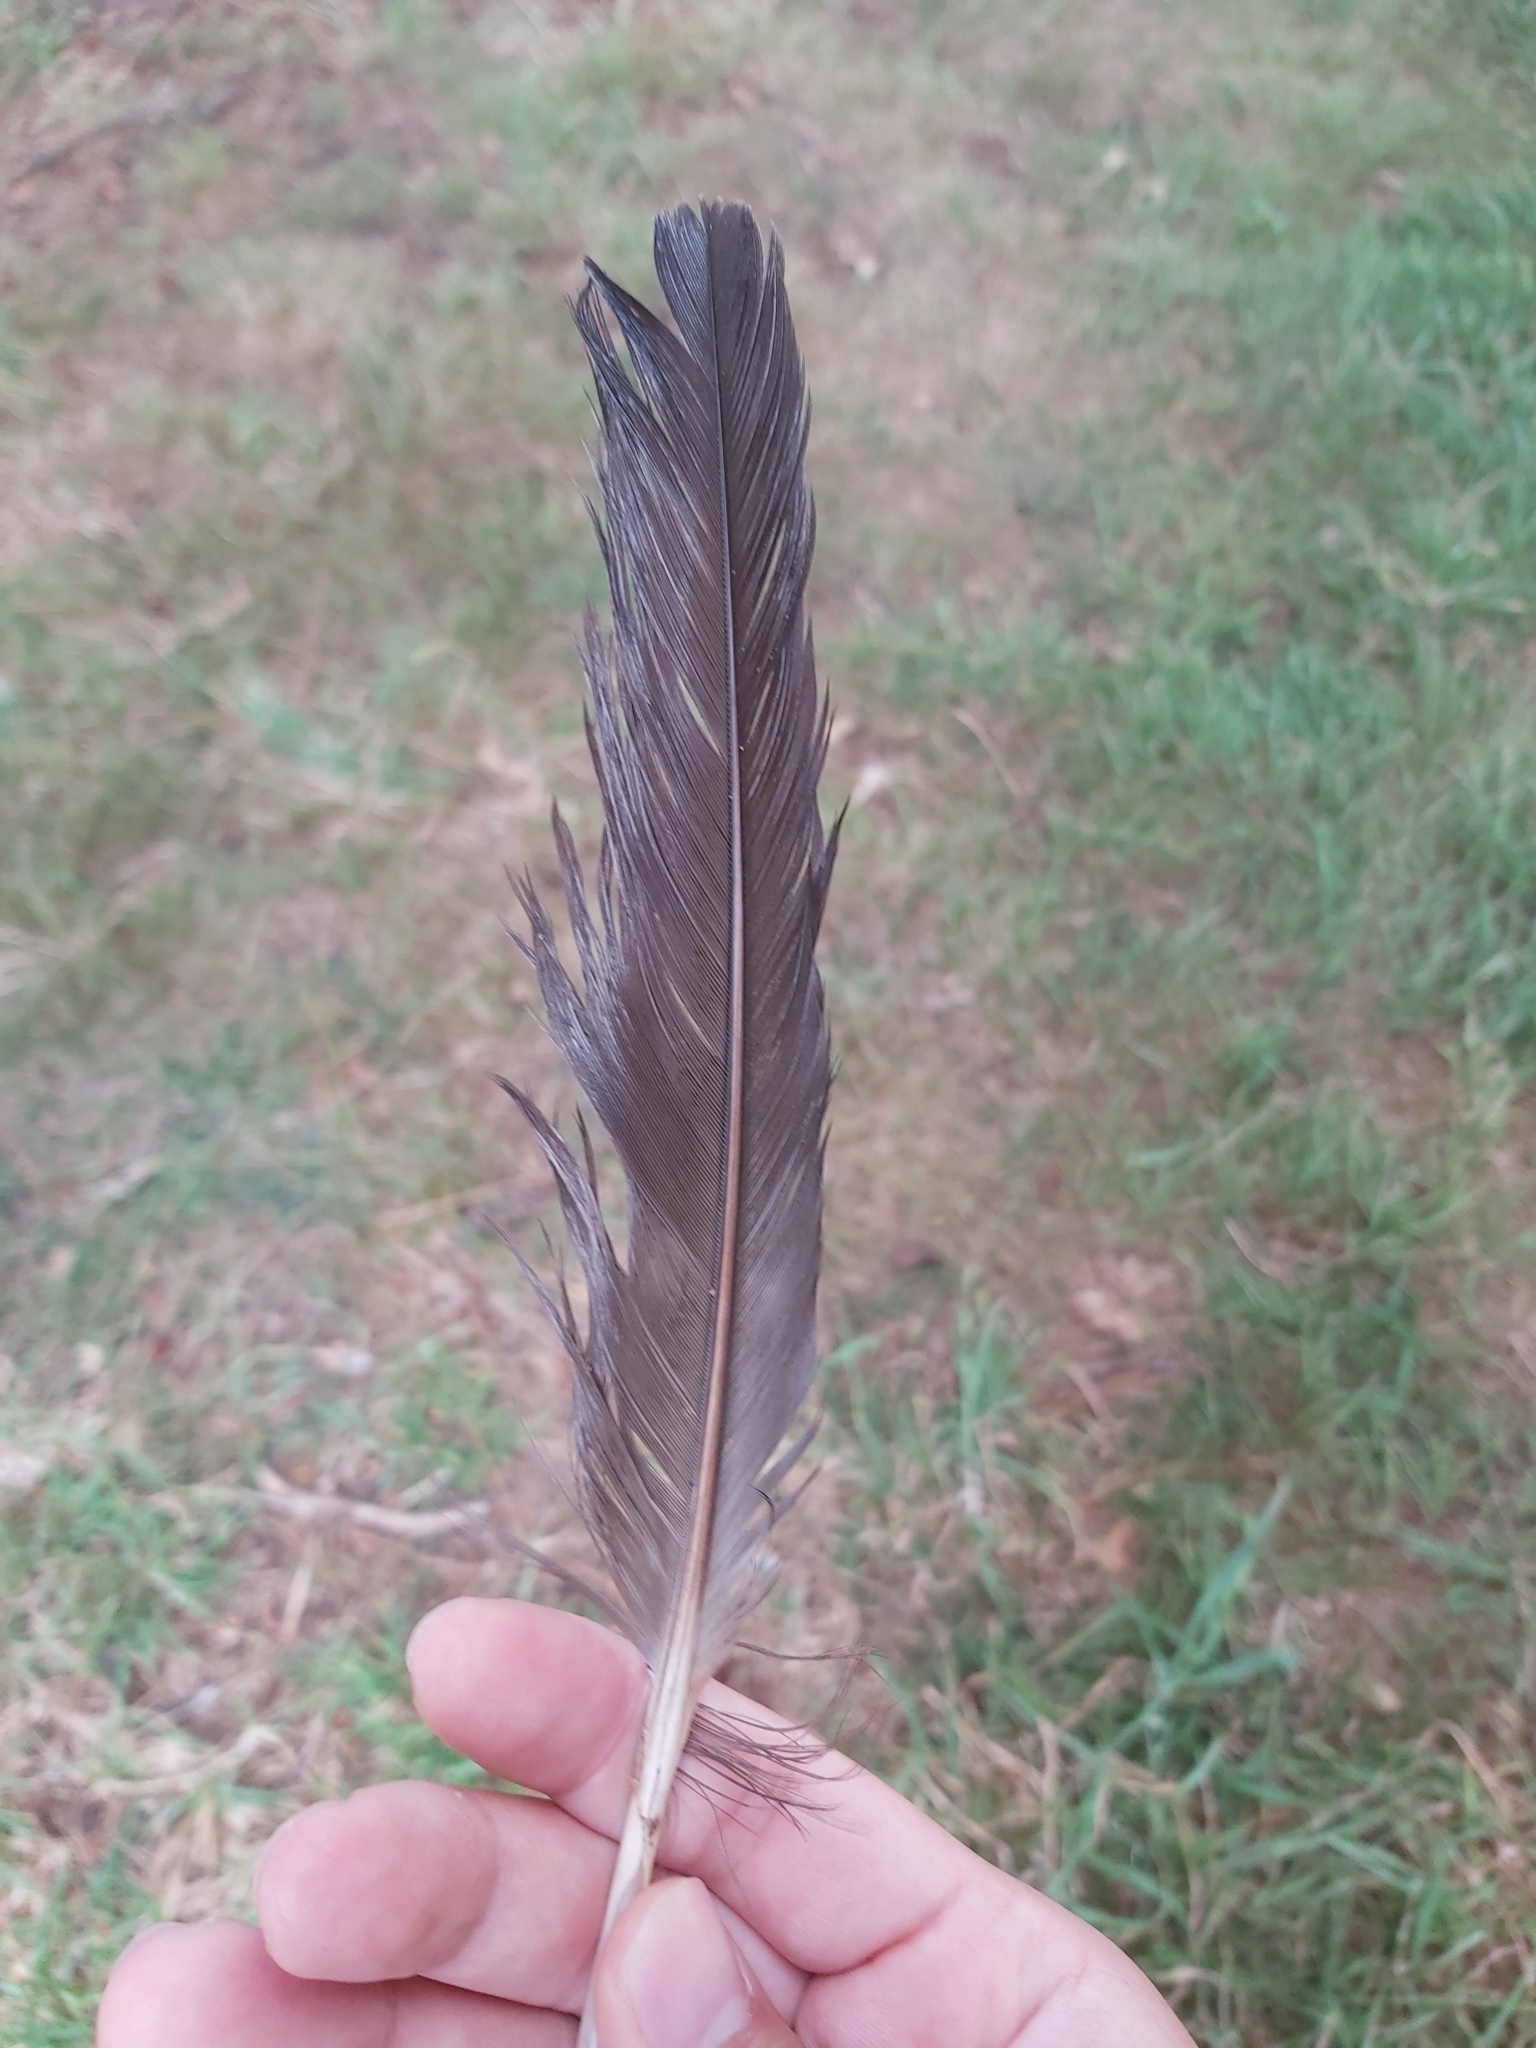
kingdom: Animalia
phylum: Chordata
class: Aves
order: Galliformes
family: Megapodiidae
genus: Alectura
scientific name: Alectura lathami
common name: Australian brushturkey
